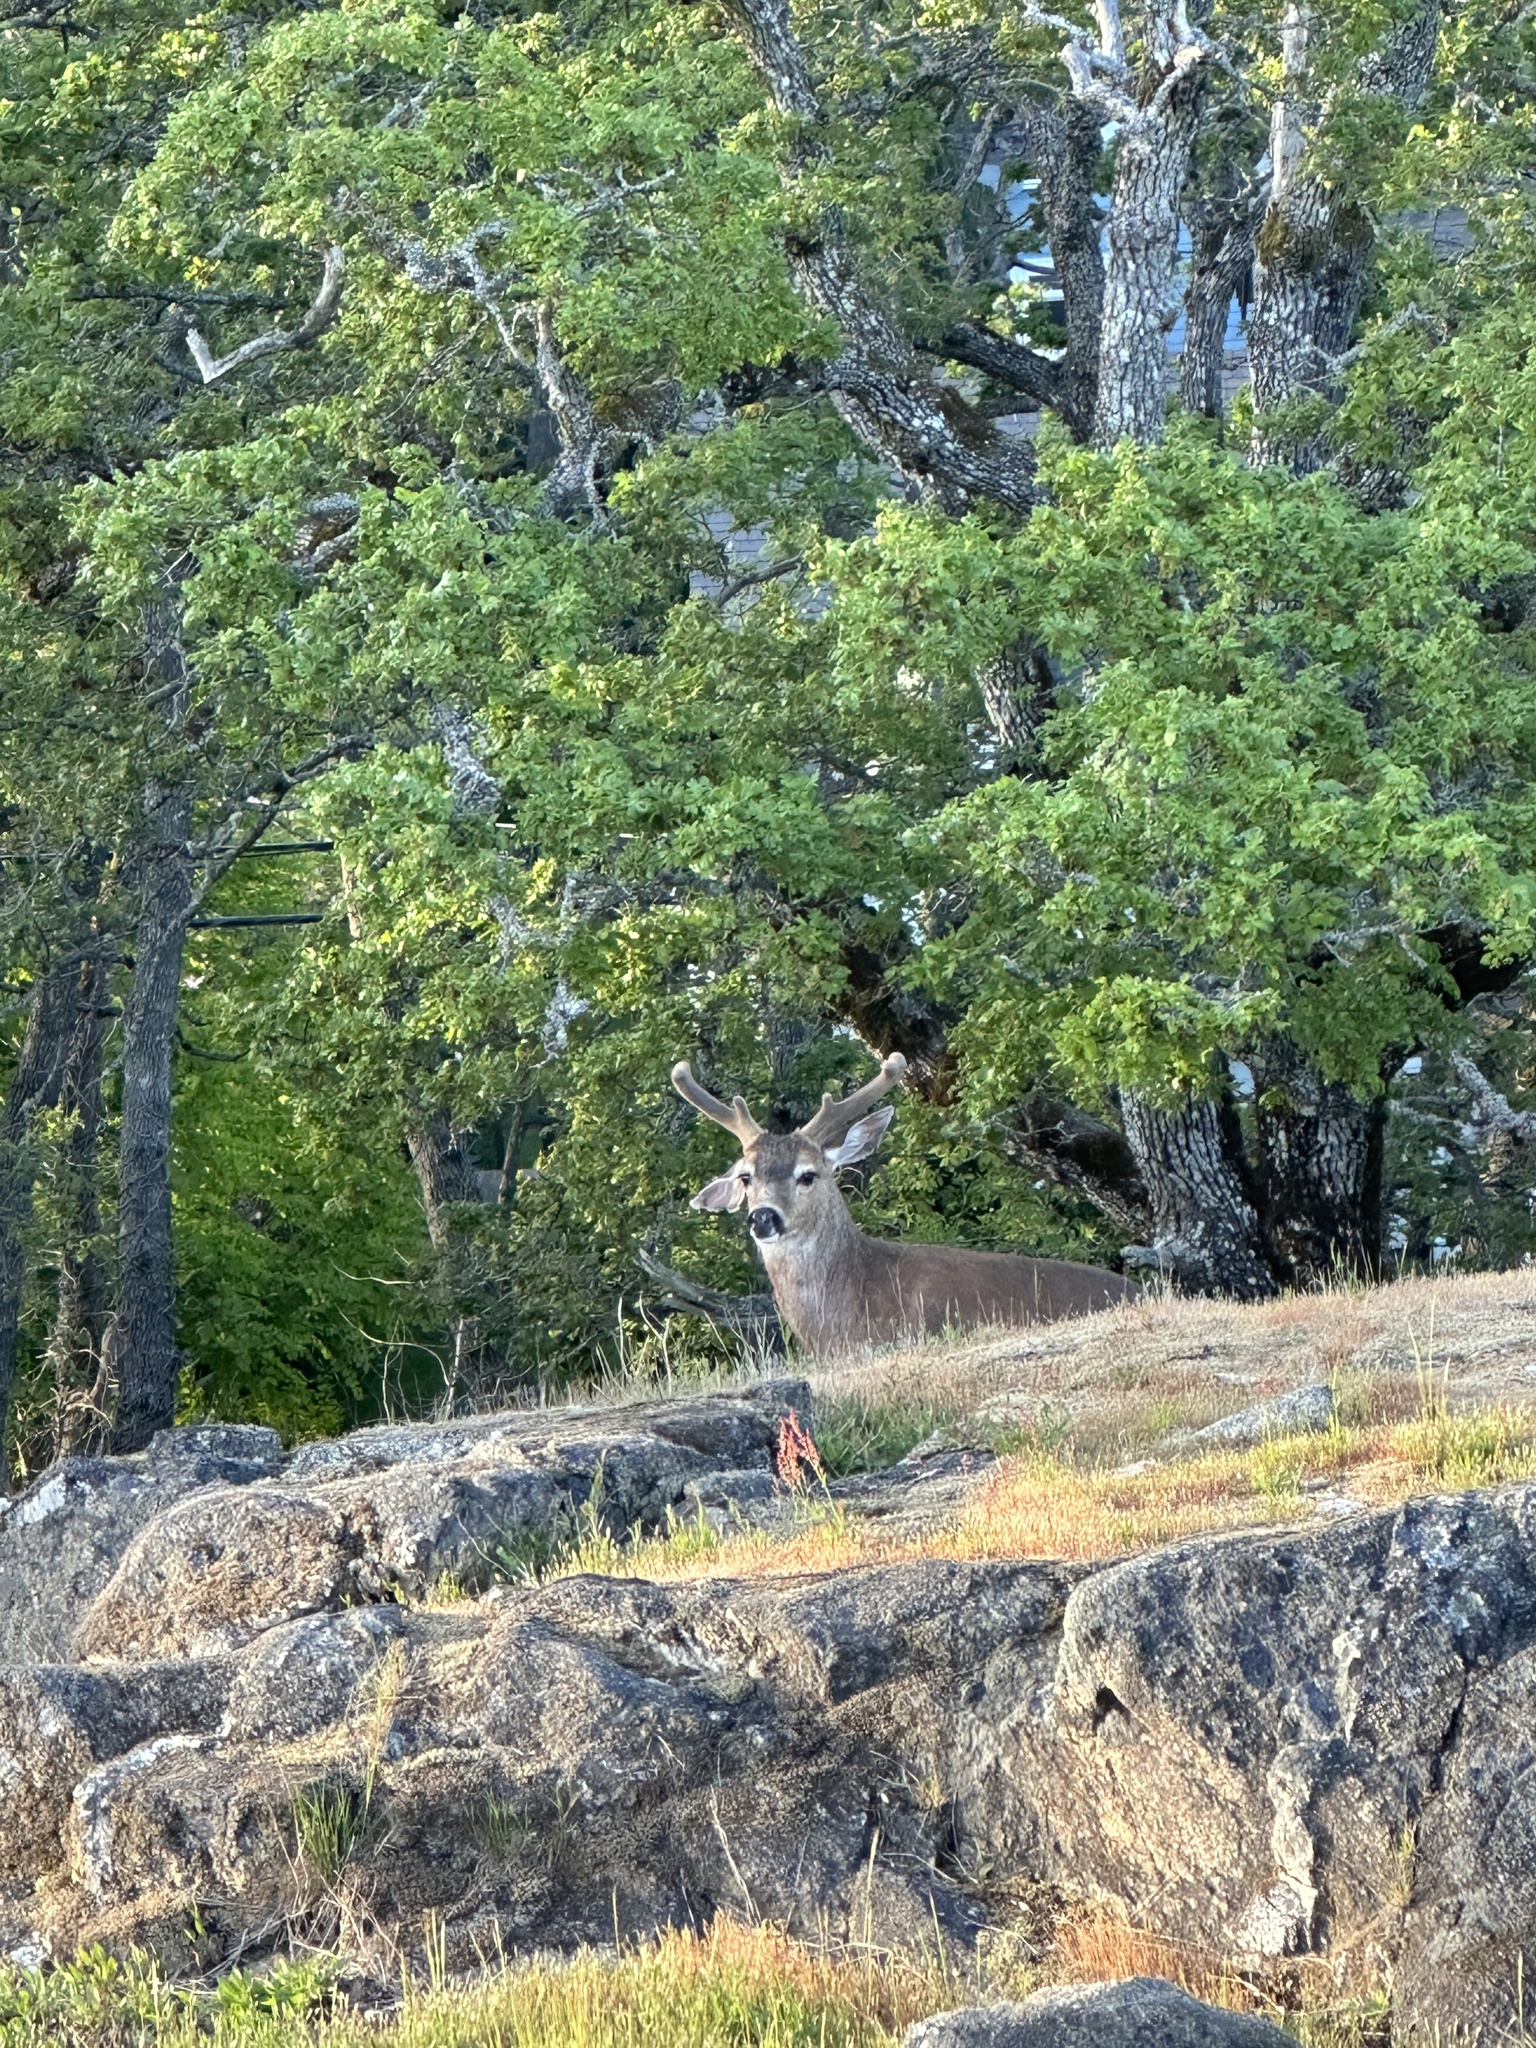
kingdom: Animalia
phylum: Chordata
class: Mammalia
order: Artiodactyla
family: Cervidae
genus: Odocoileus
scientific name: Odocoileus hemionus
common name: Mule deer
